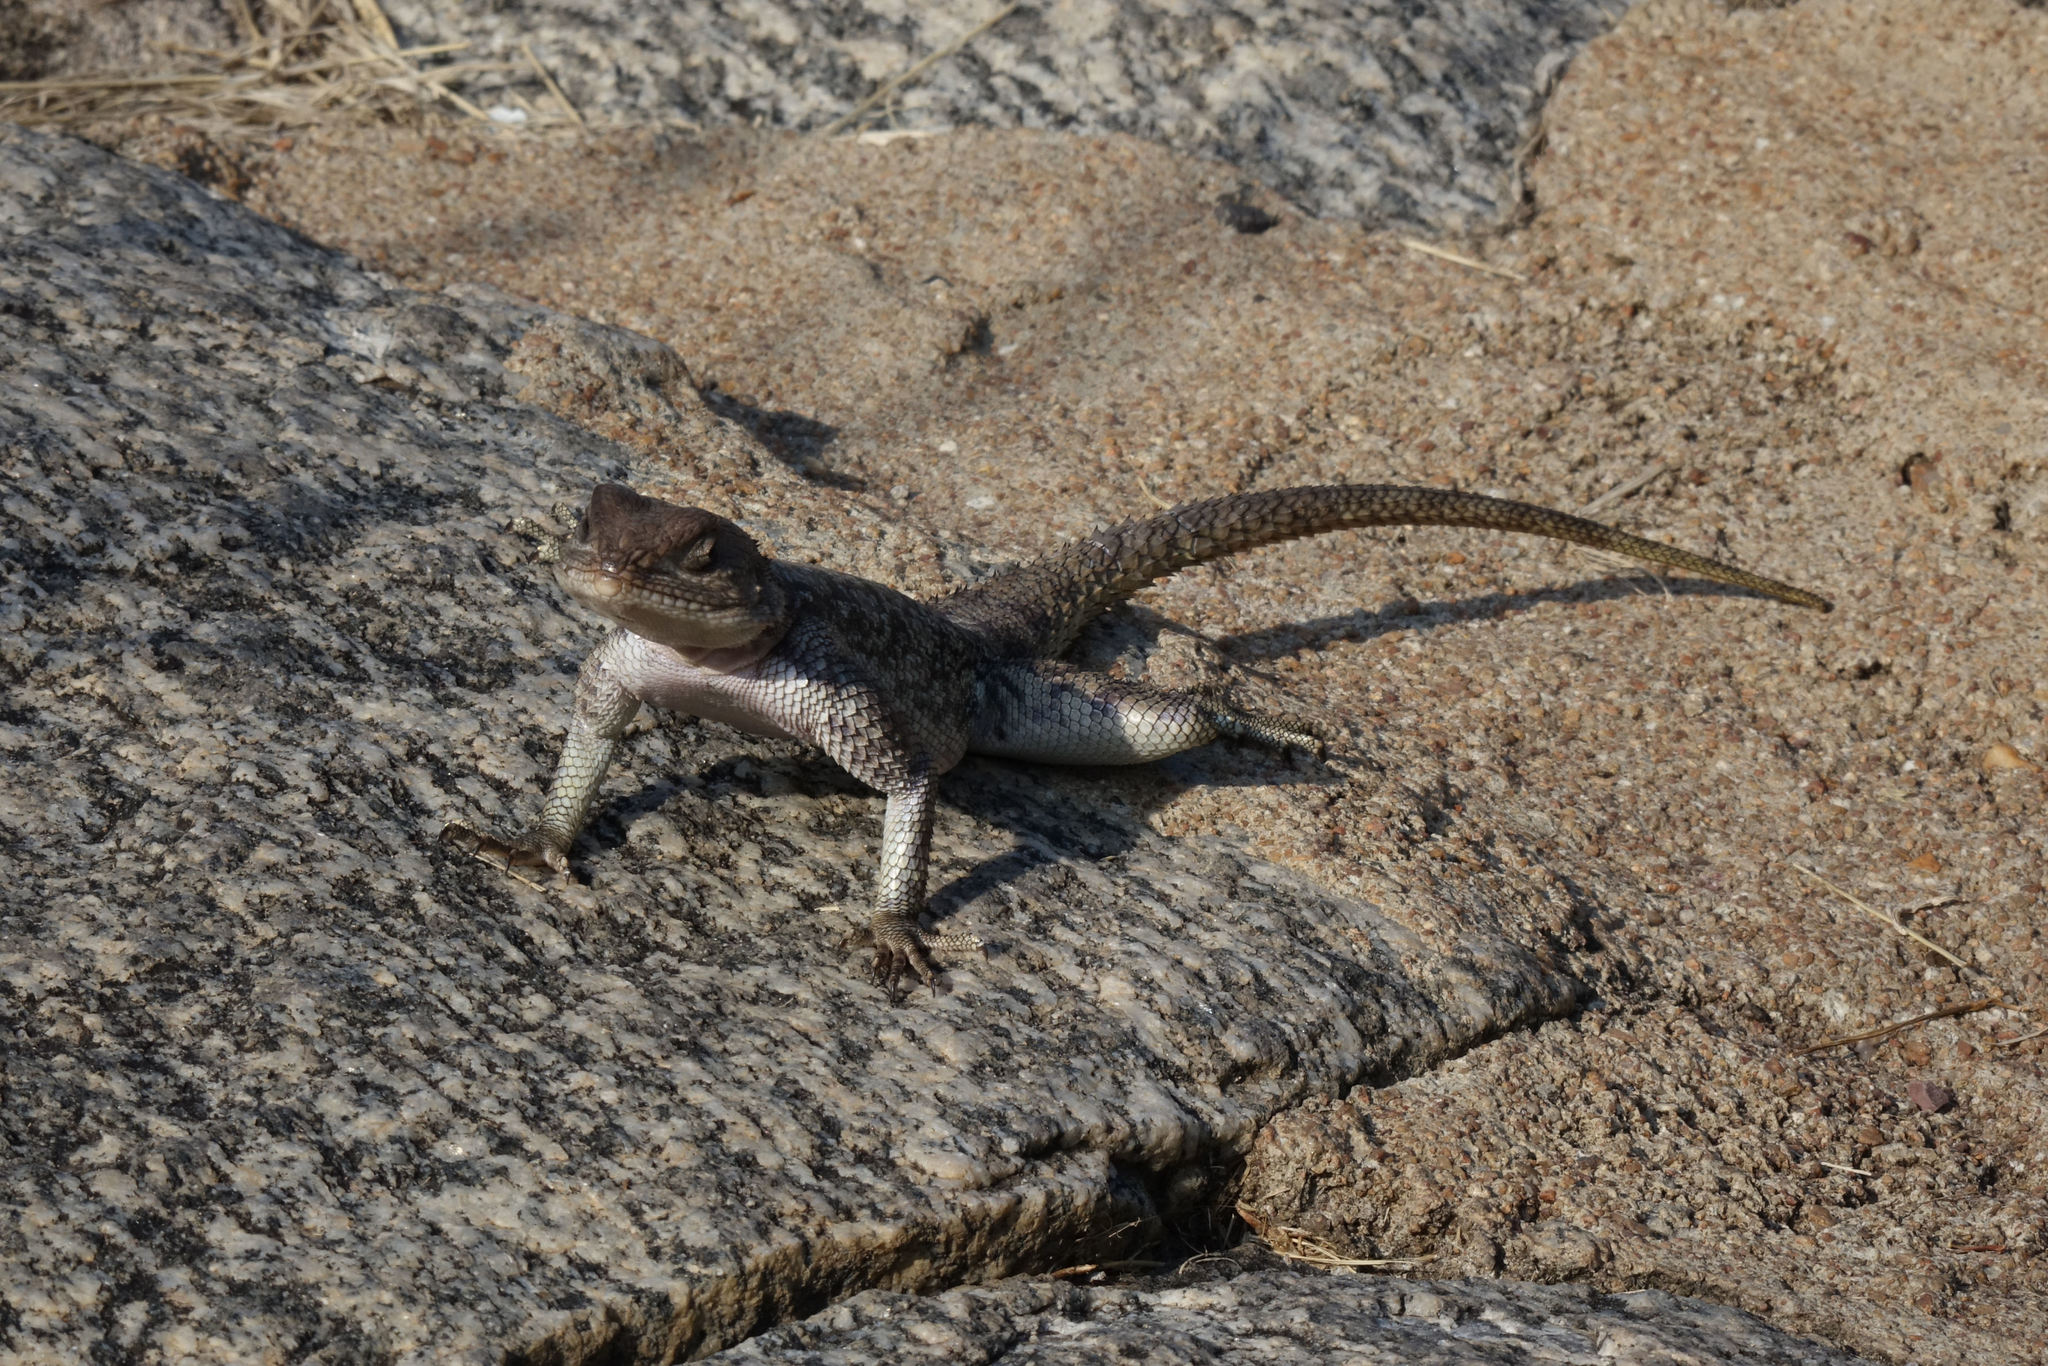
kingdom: Animalia
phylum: Chordata
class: Squamata
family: Agamidae
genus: Agama
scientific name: Agama mwanzae
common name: Mwanza flat-headed agama
